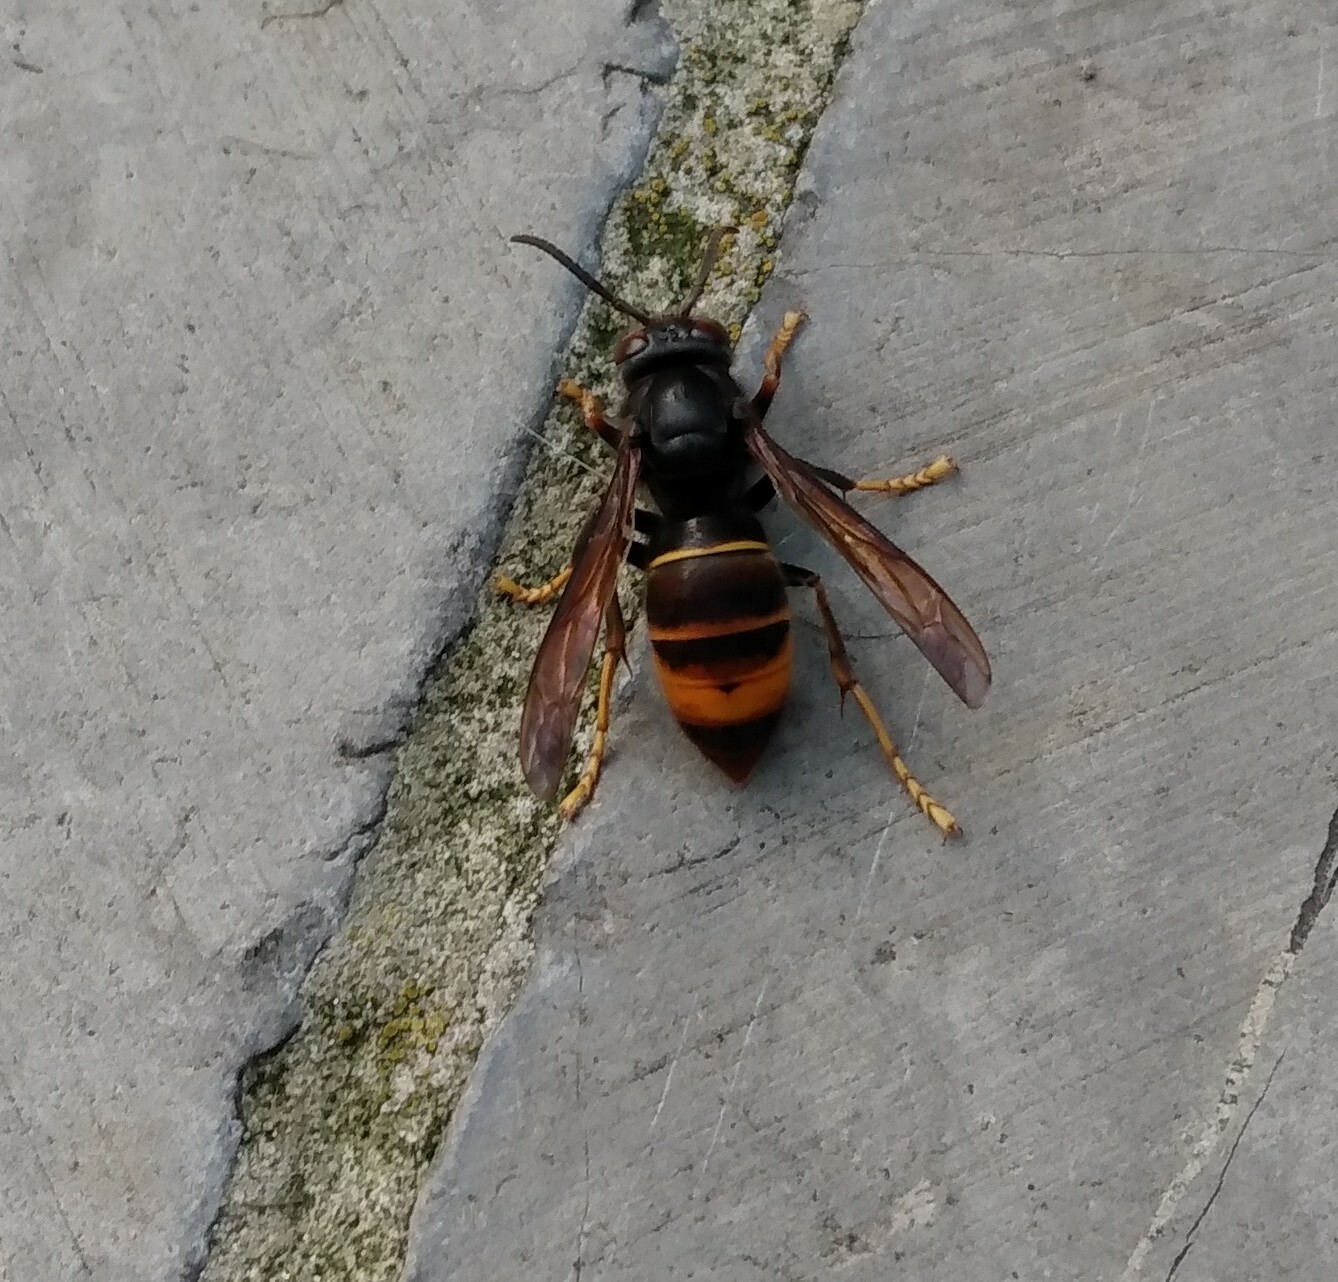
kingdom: Animalia
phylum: Arthropoda
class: Insecta
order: Hymenoptera
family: Vespidae
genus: Vespa
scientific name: Vespa velutina
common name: Asian hornet
